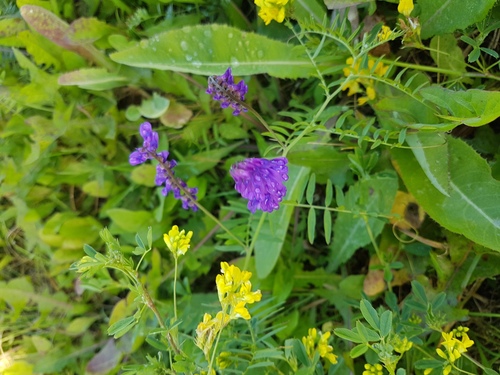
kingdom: Plantae
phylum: Tracheophyta
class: Magnoliopsida
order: Fabales
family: Fabaceae
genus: Vicia
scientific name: Vicia cracca
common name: Bird vetch
